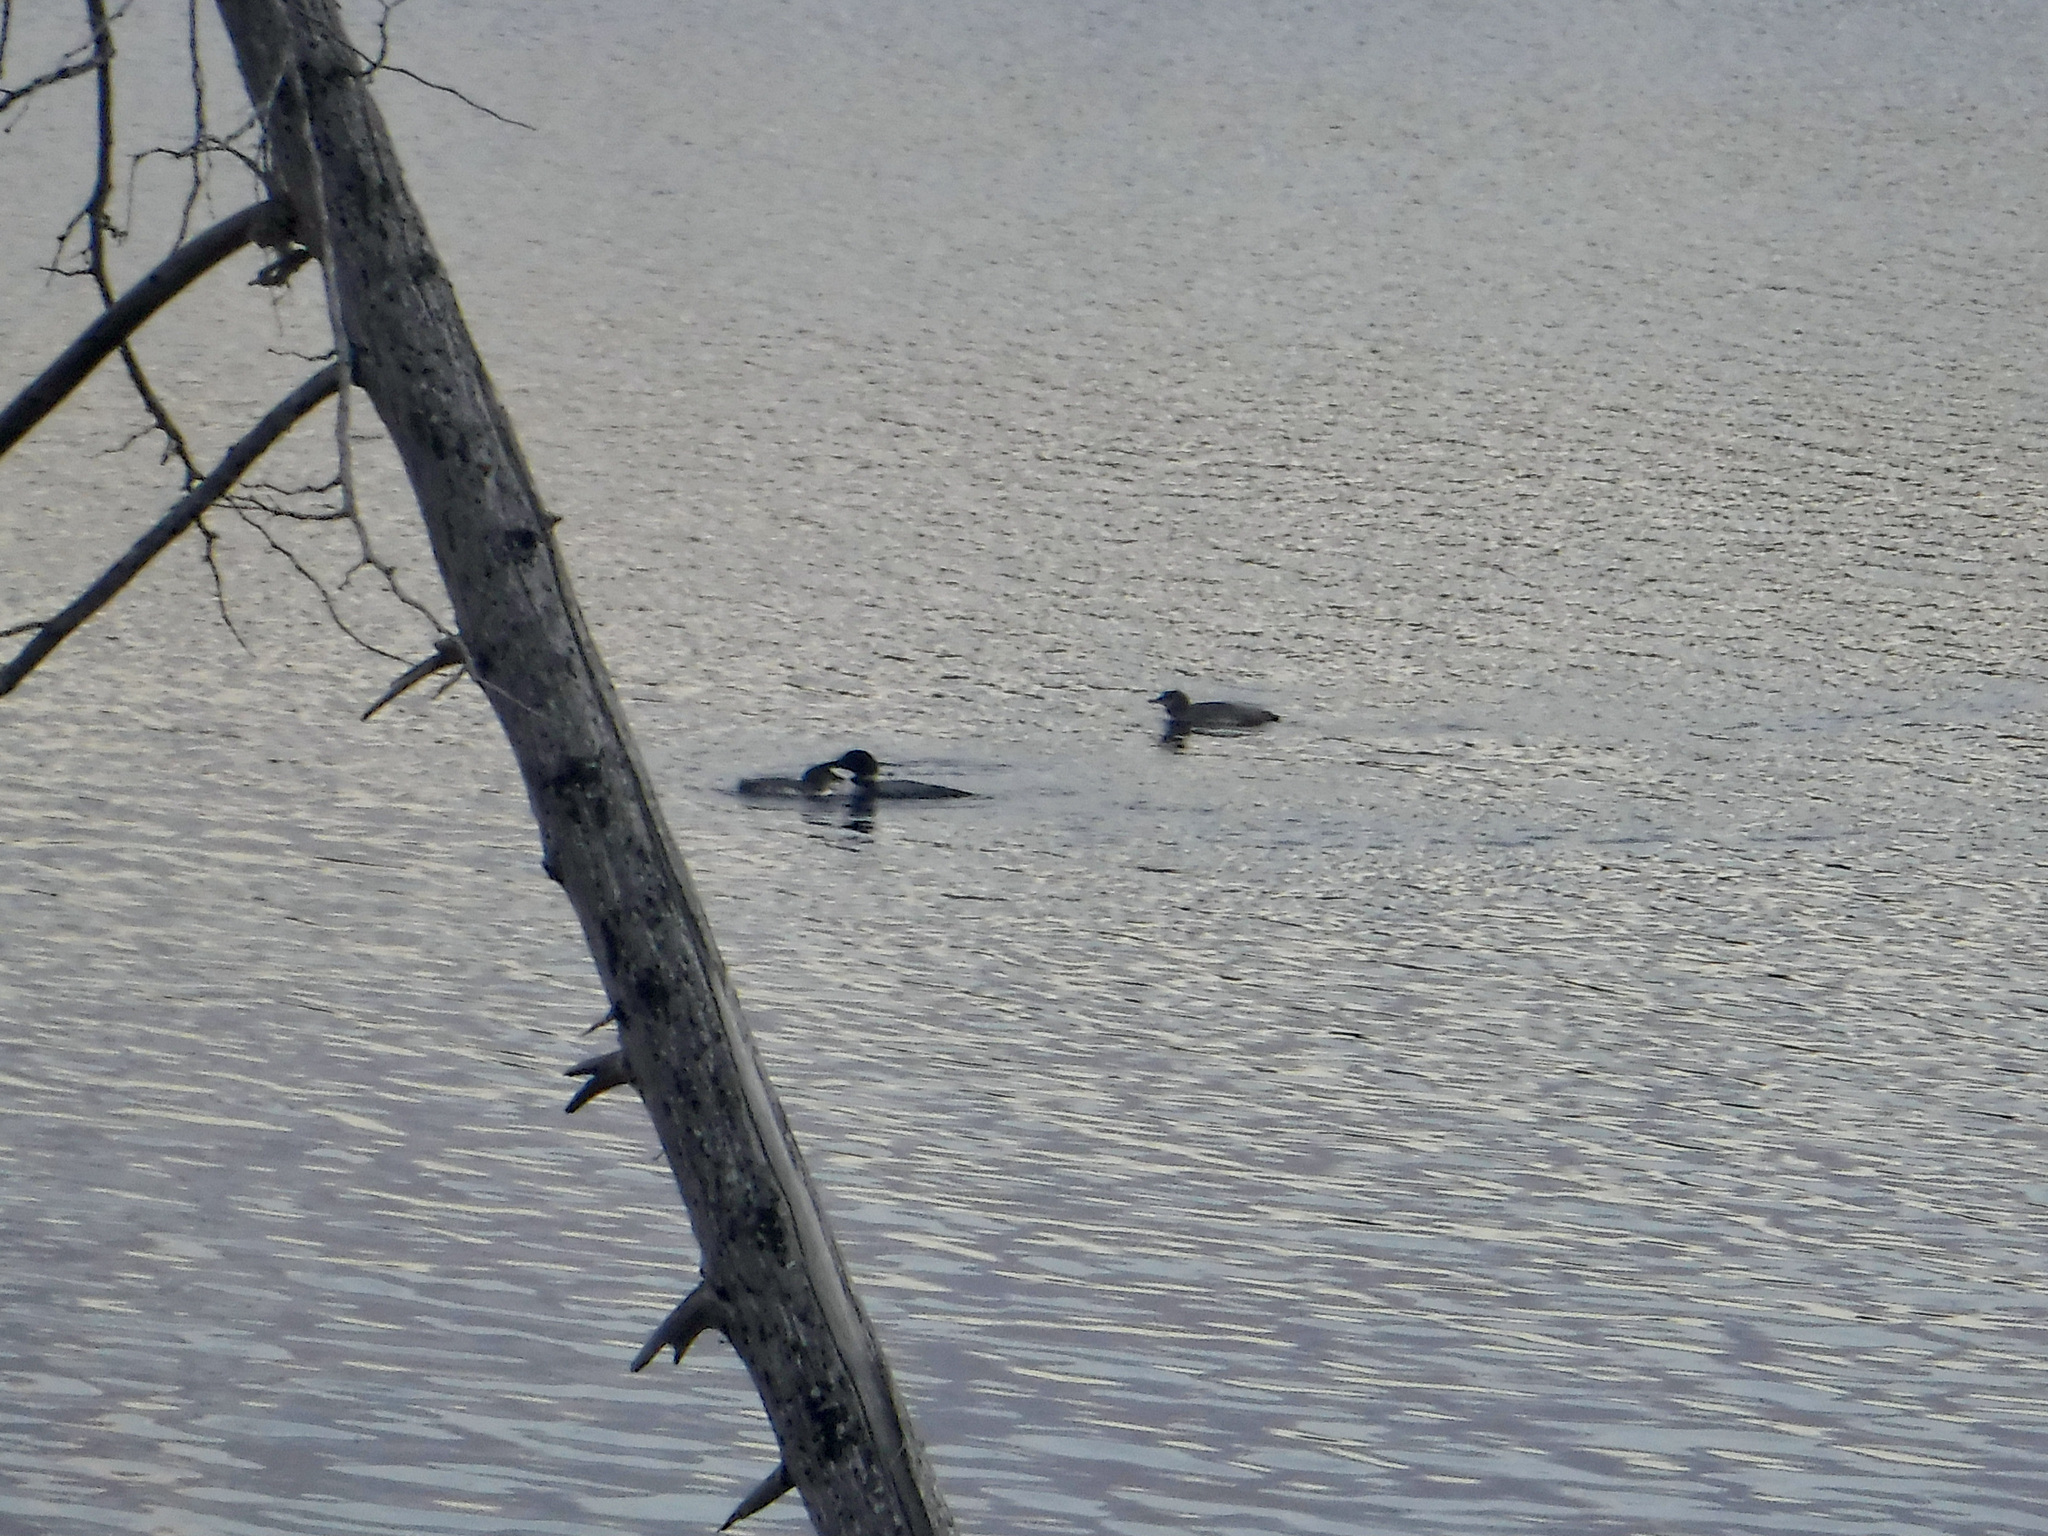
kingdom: Animalia
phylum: Chordata
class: Aves
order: Gaviiformes
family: Gaviidae
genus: Gavia
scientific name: Gavia immer
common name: Common loon
